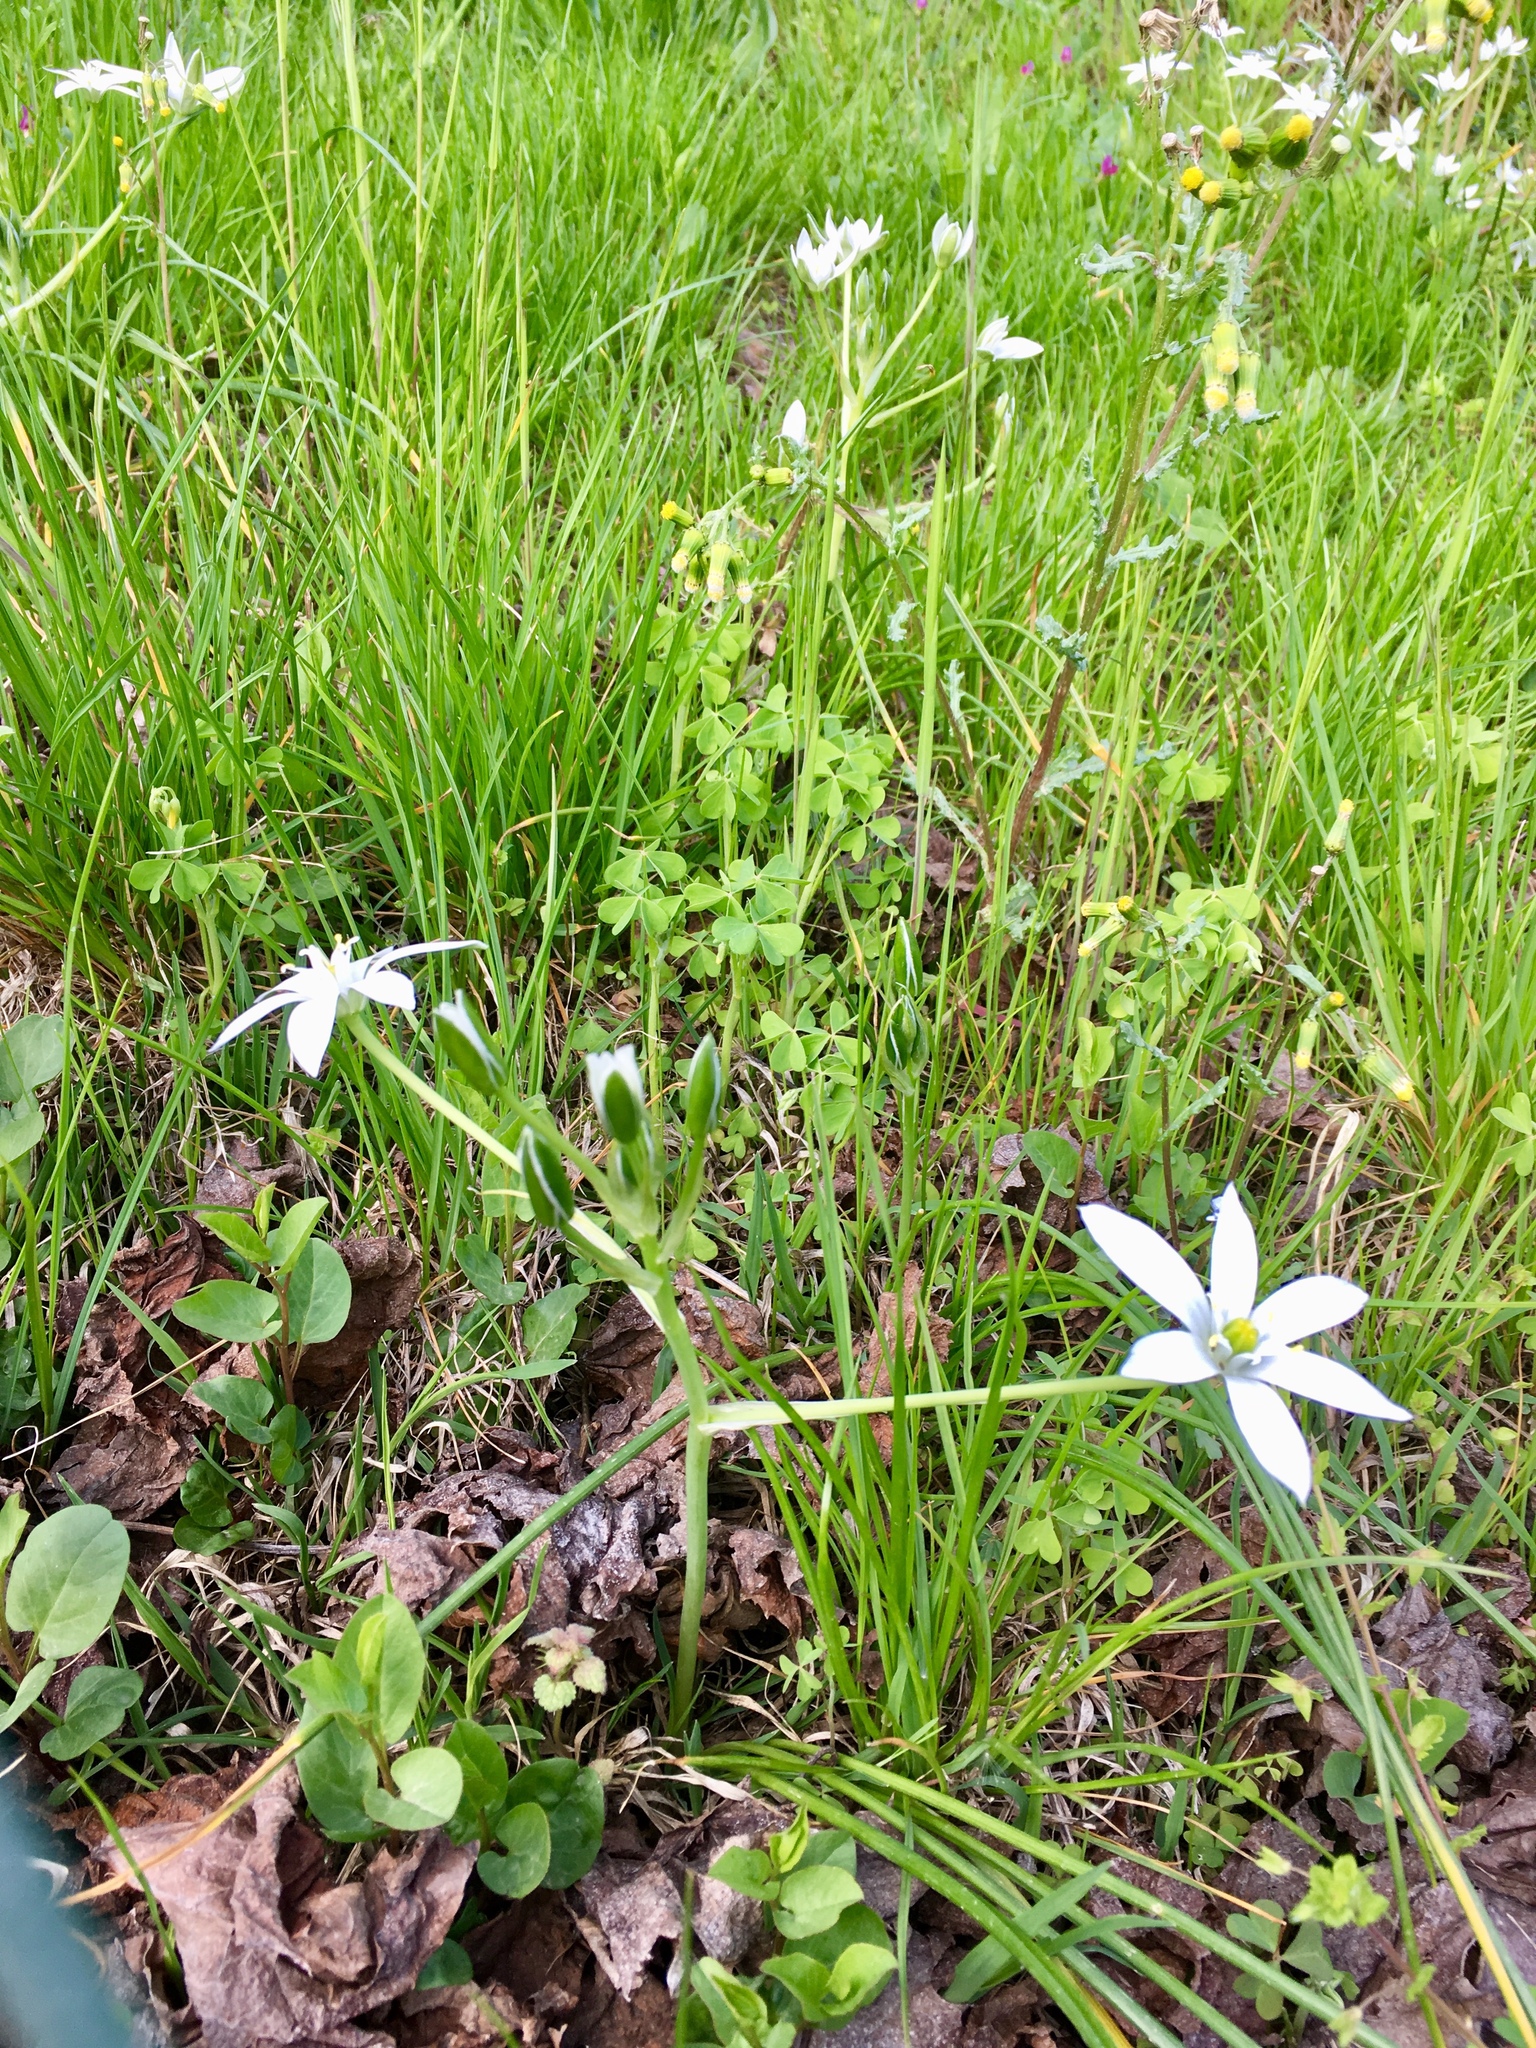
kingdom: Plantae
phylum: Tracheophyta
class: Liliopsida
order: Asparagales
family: Asparagaceae
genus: Ornithogalum
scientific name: Ornithogalum umbellatum
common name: Garden star-of-bethlehem
